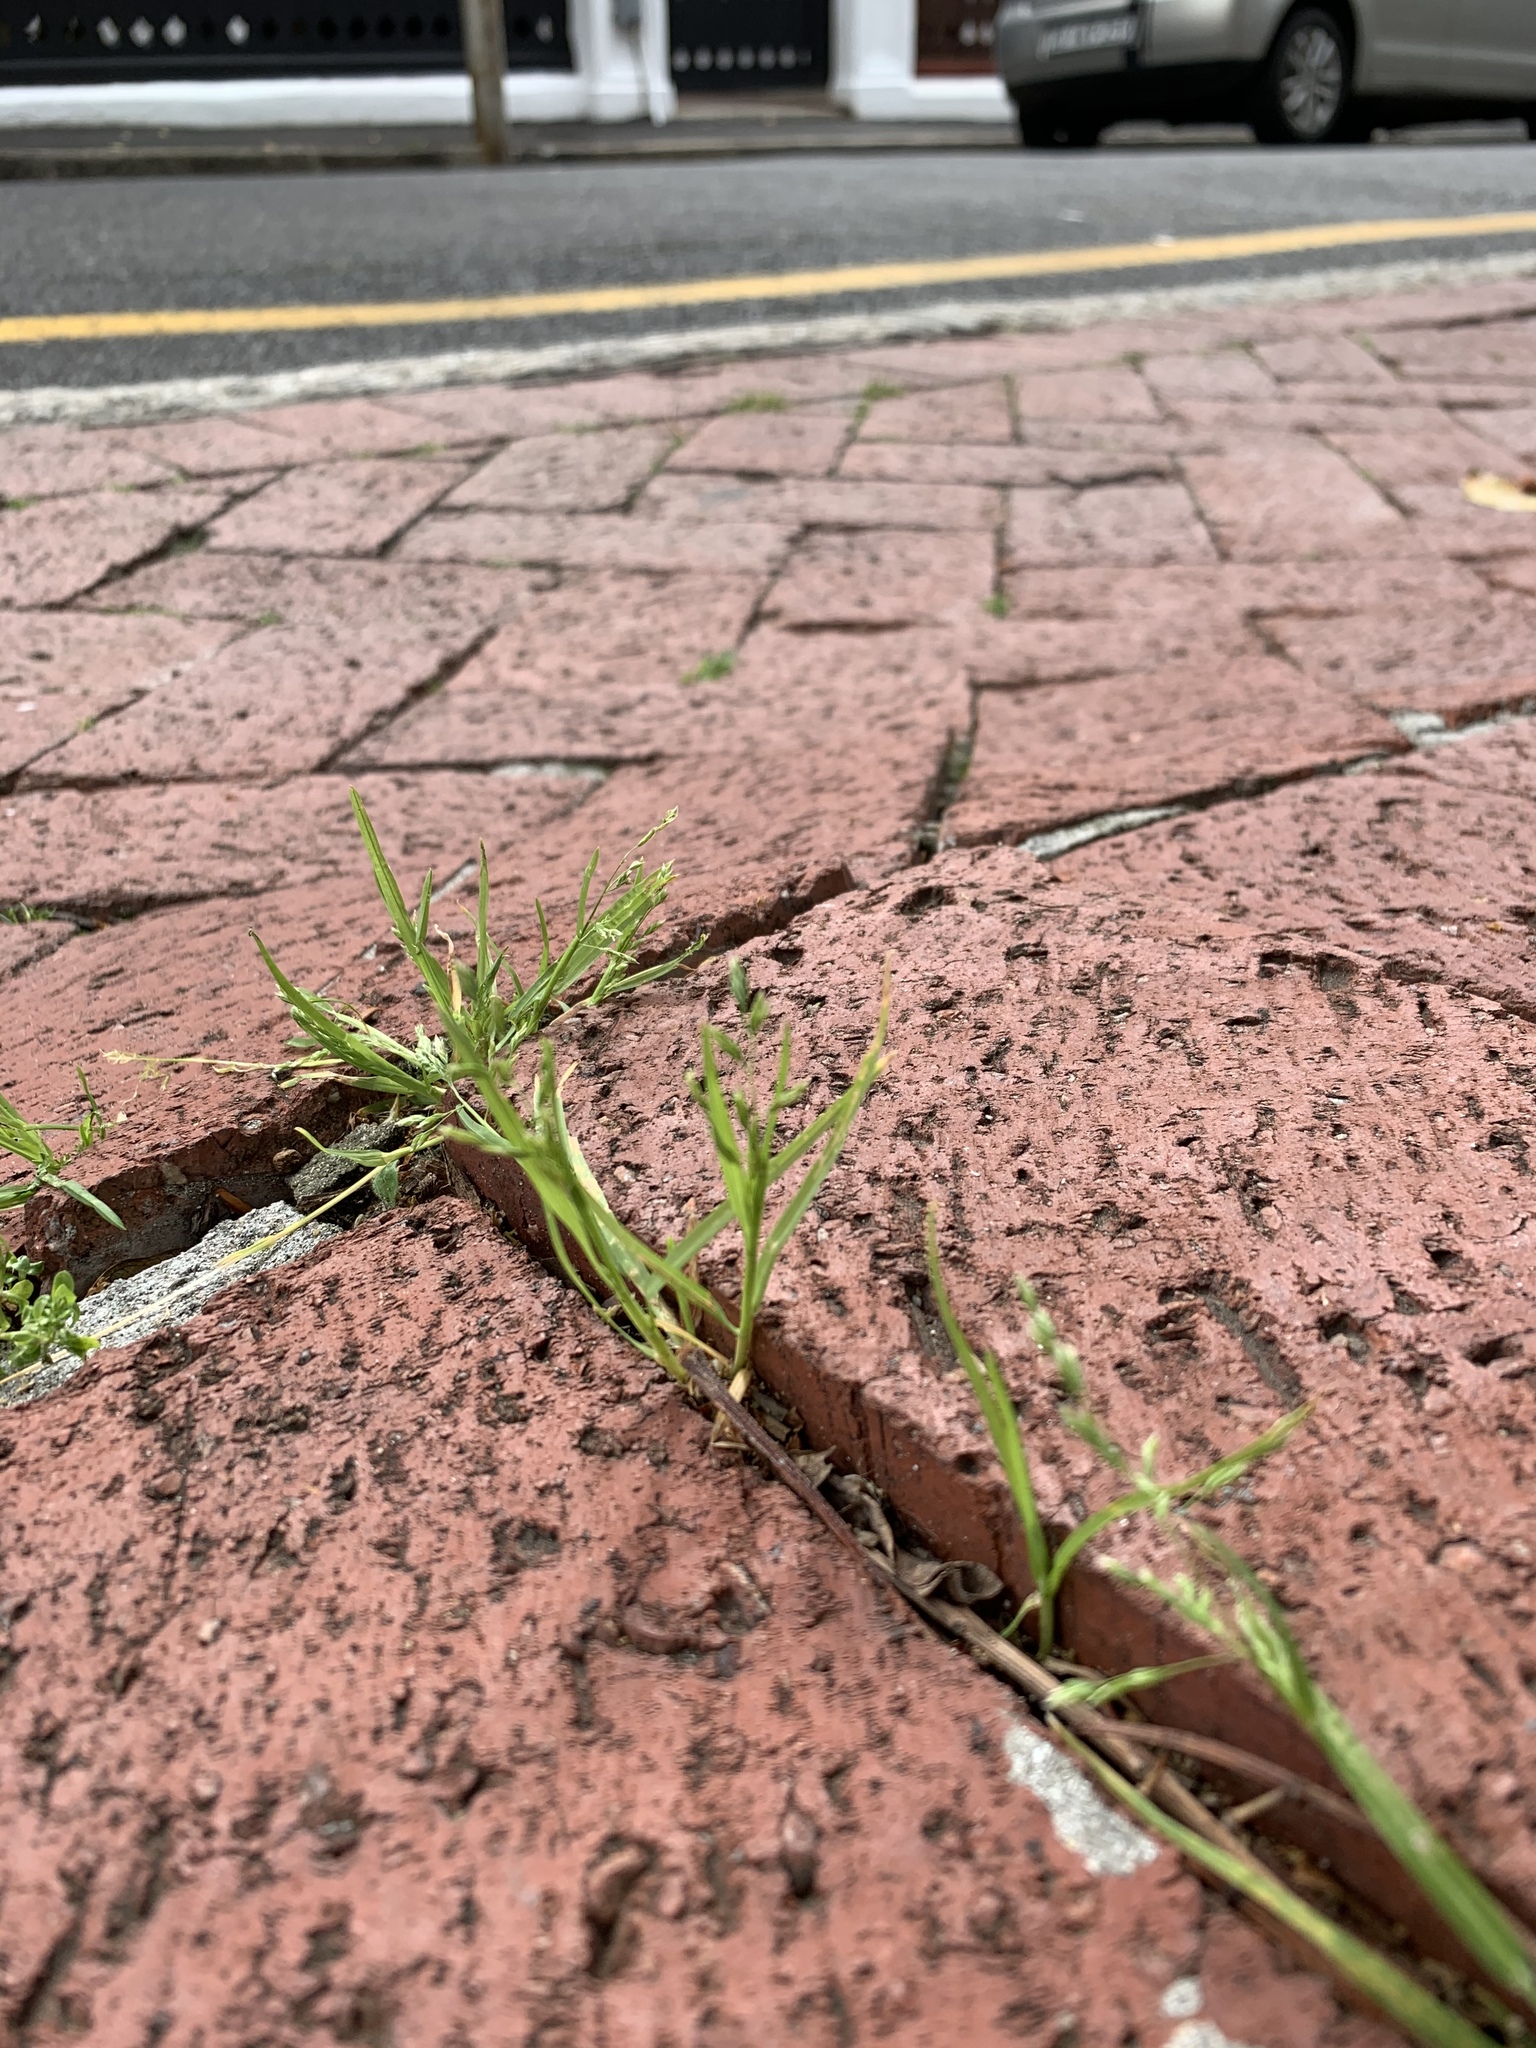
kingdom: Plantae
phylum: Tracheophyta
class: Liliopsida
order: Poales
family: Poaceae
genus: Poa
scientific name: Poa annua
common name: Annual bluegrass
